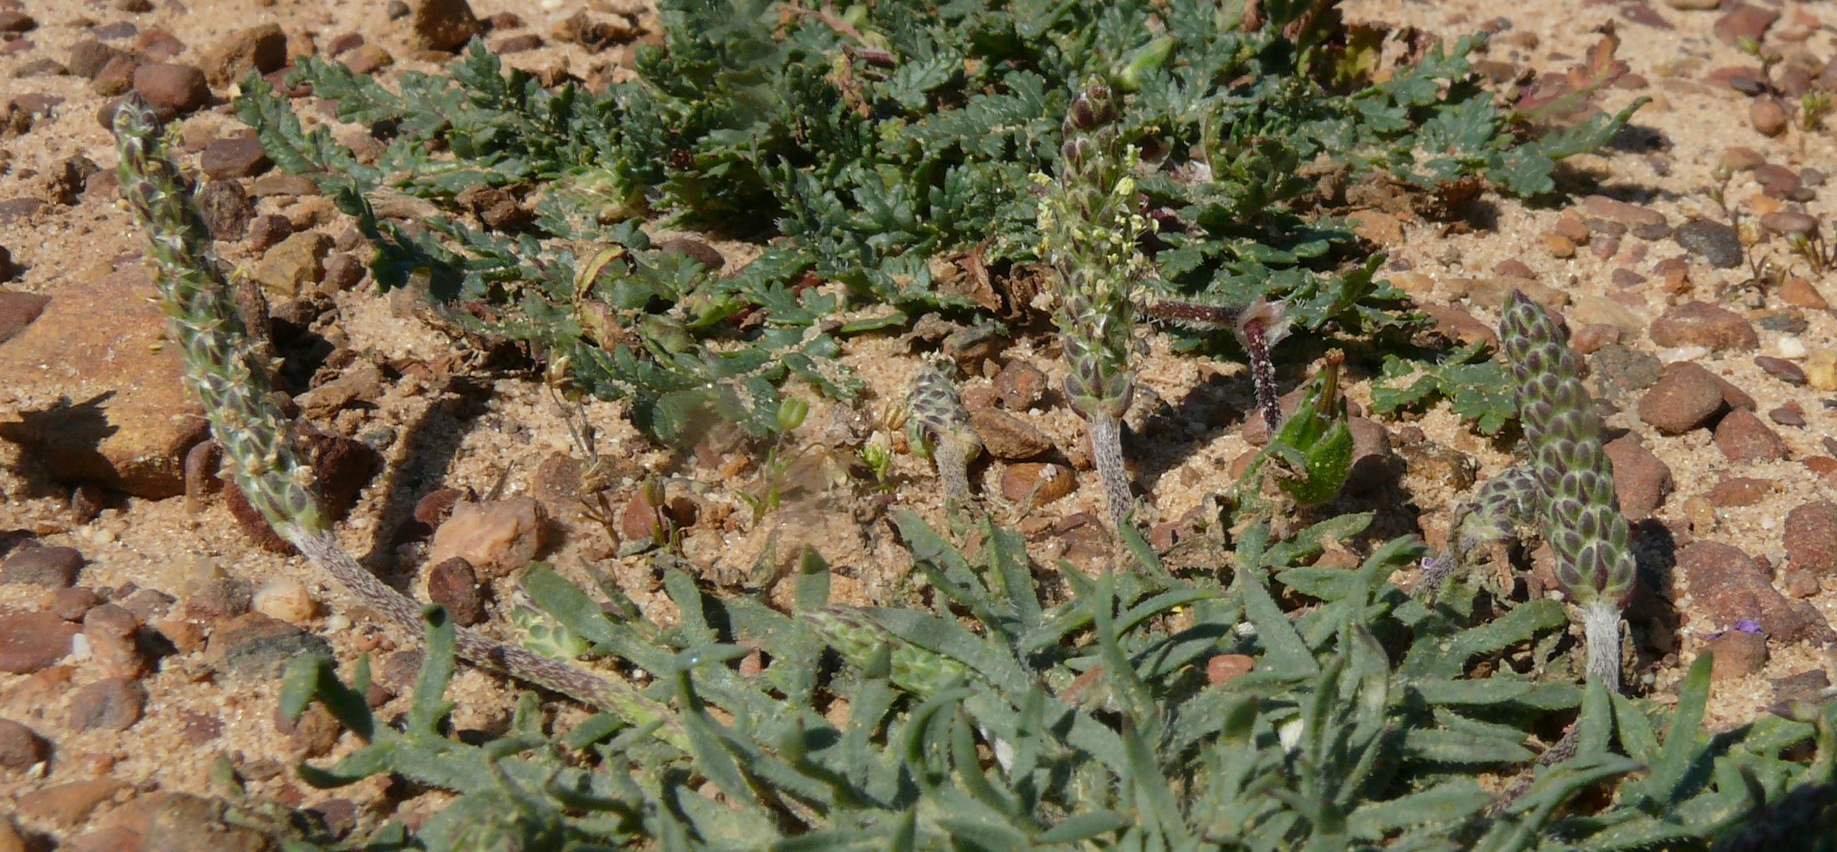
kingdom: Plantae
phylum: Tracheophyta
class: Magnoliopsida
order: Lamiales
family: Plantaginaceae
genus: Plantago
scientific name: Plantago coronopus
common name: Buck's-horn plantain
